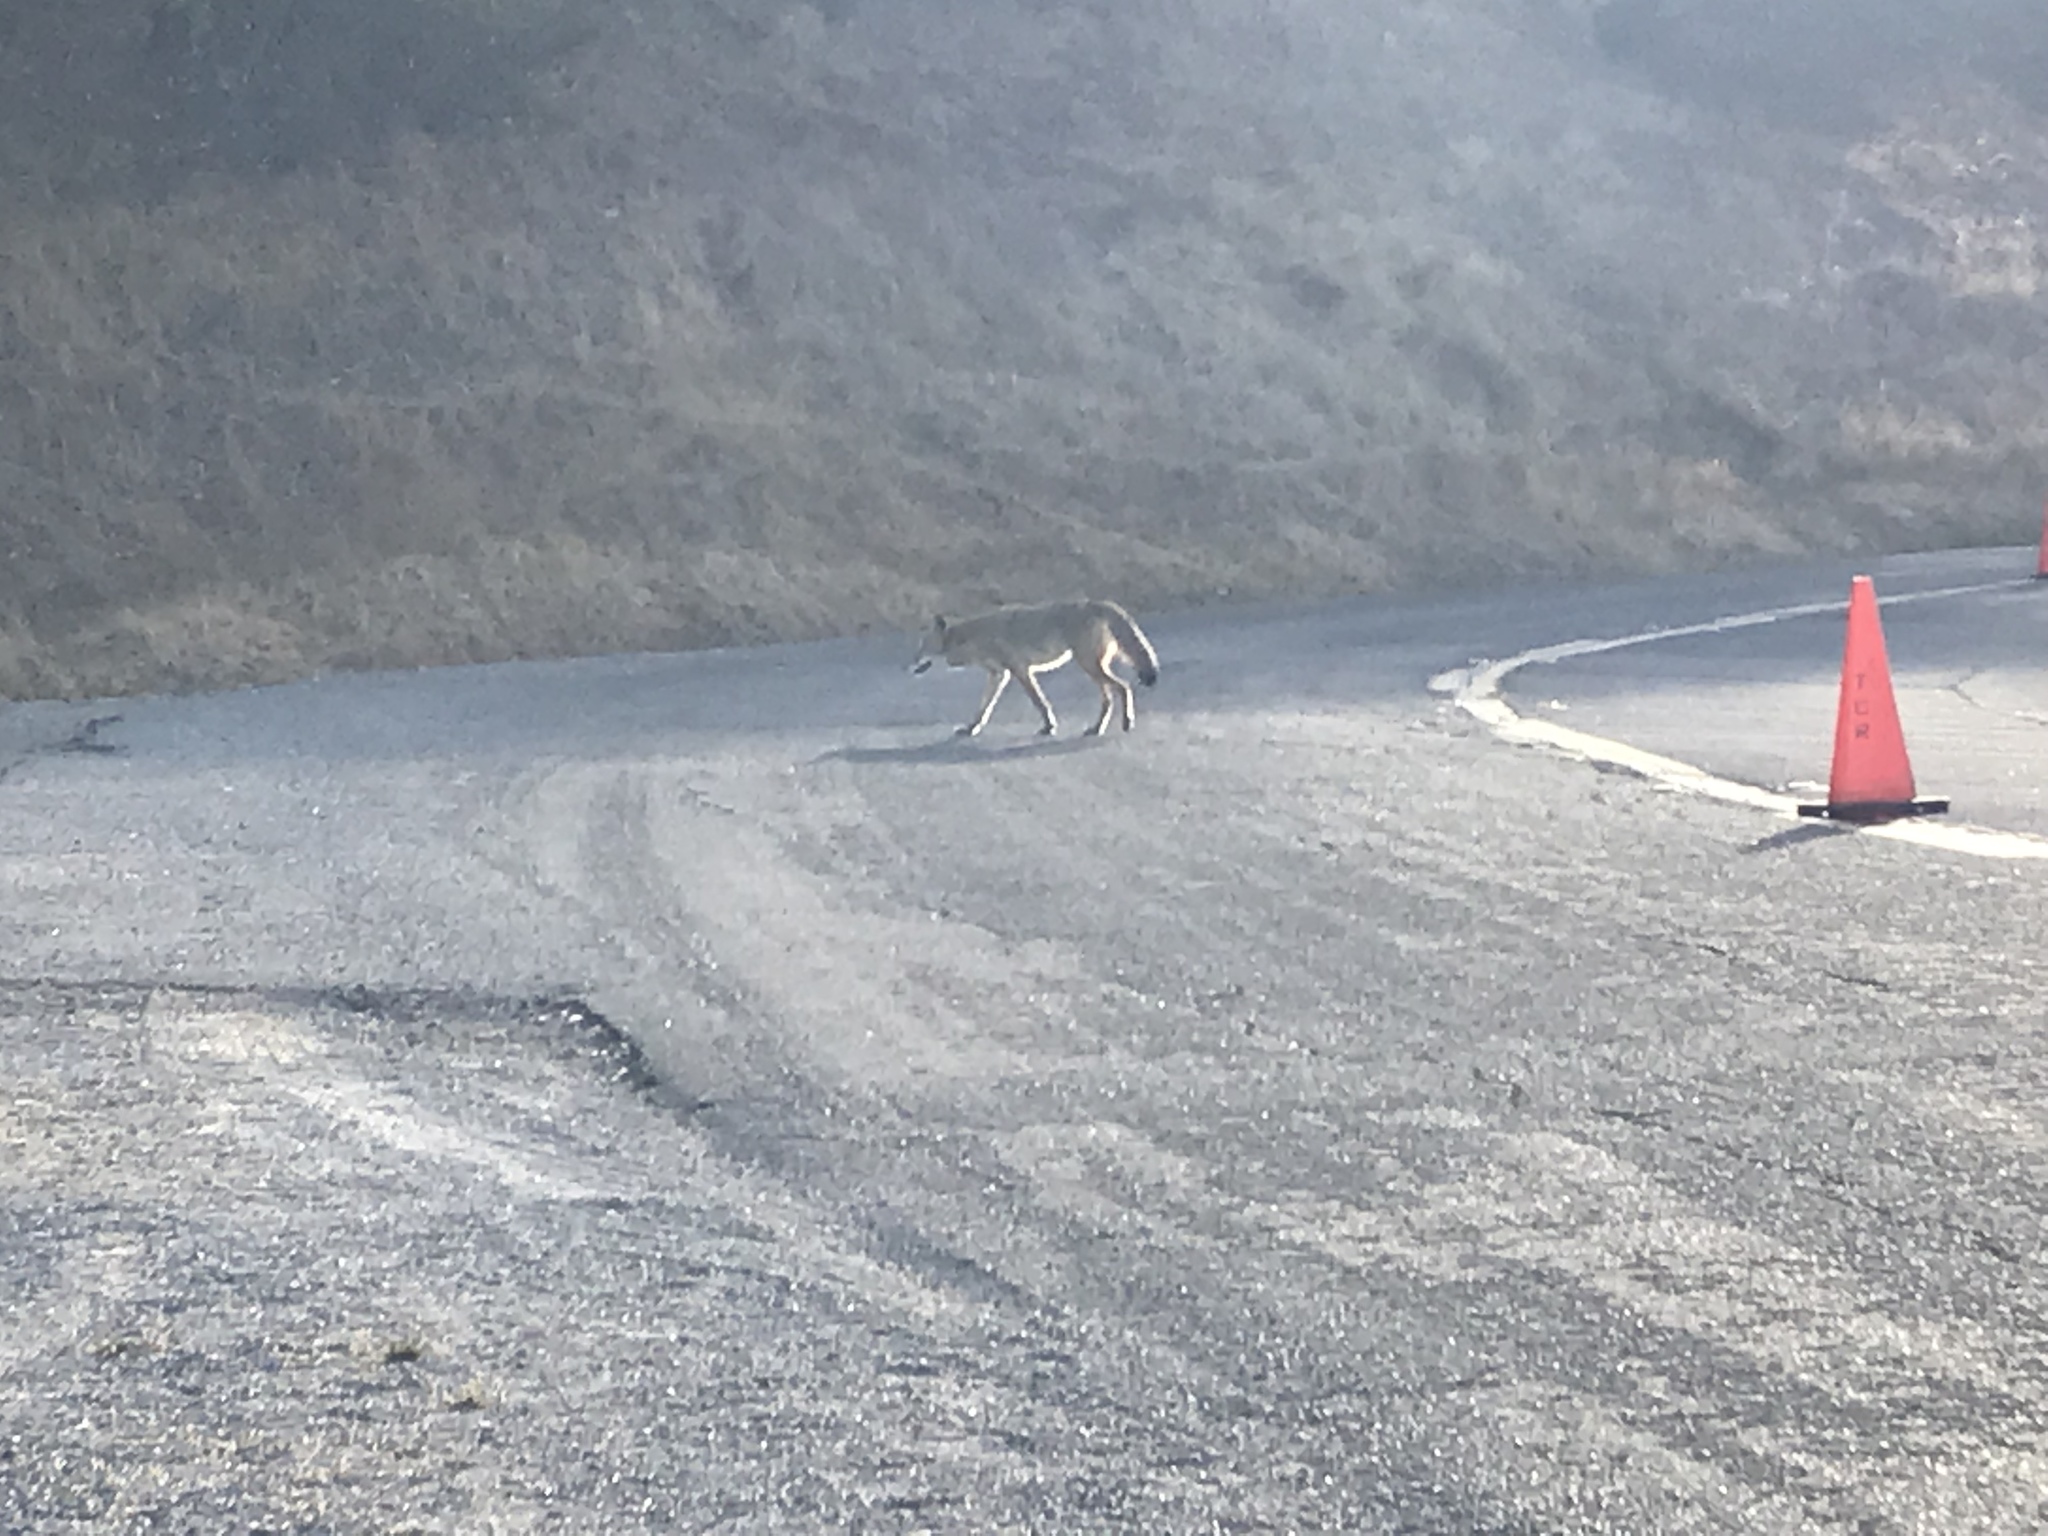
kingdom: Animalia
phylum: Chordata
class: Mammalia
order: Carnivora
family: Canidae
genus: Canis
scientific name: Canis latrans
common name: Coyote
